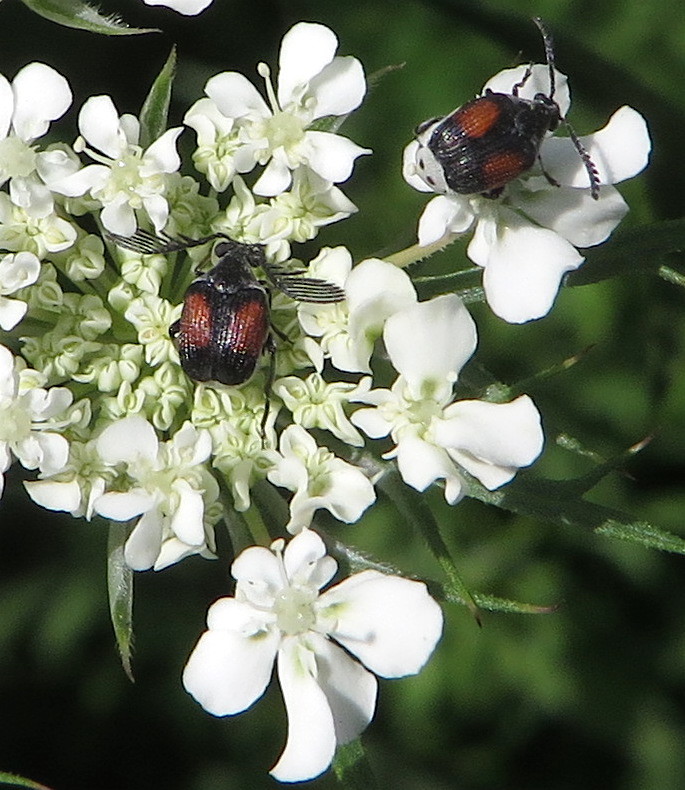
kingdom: Animalia
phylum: Arthropoda
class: Insecta
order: Coleoptera
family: Chrysomelidae
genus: Megacerus
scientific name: Megacerus discoidus
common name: Red megacerus
